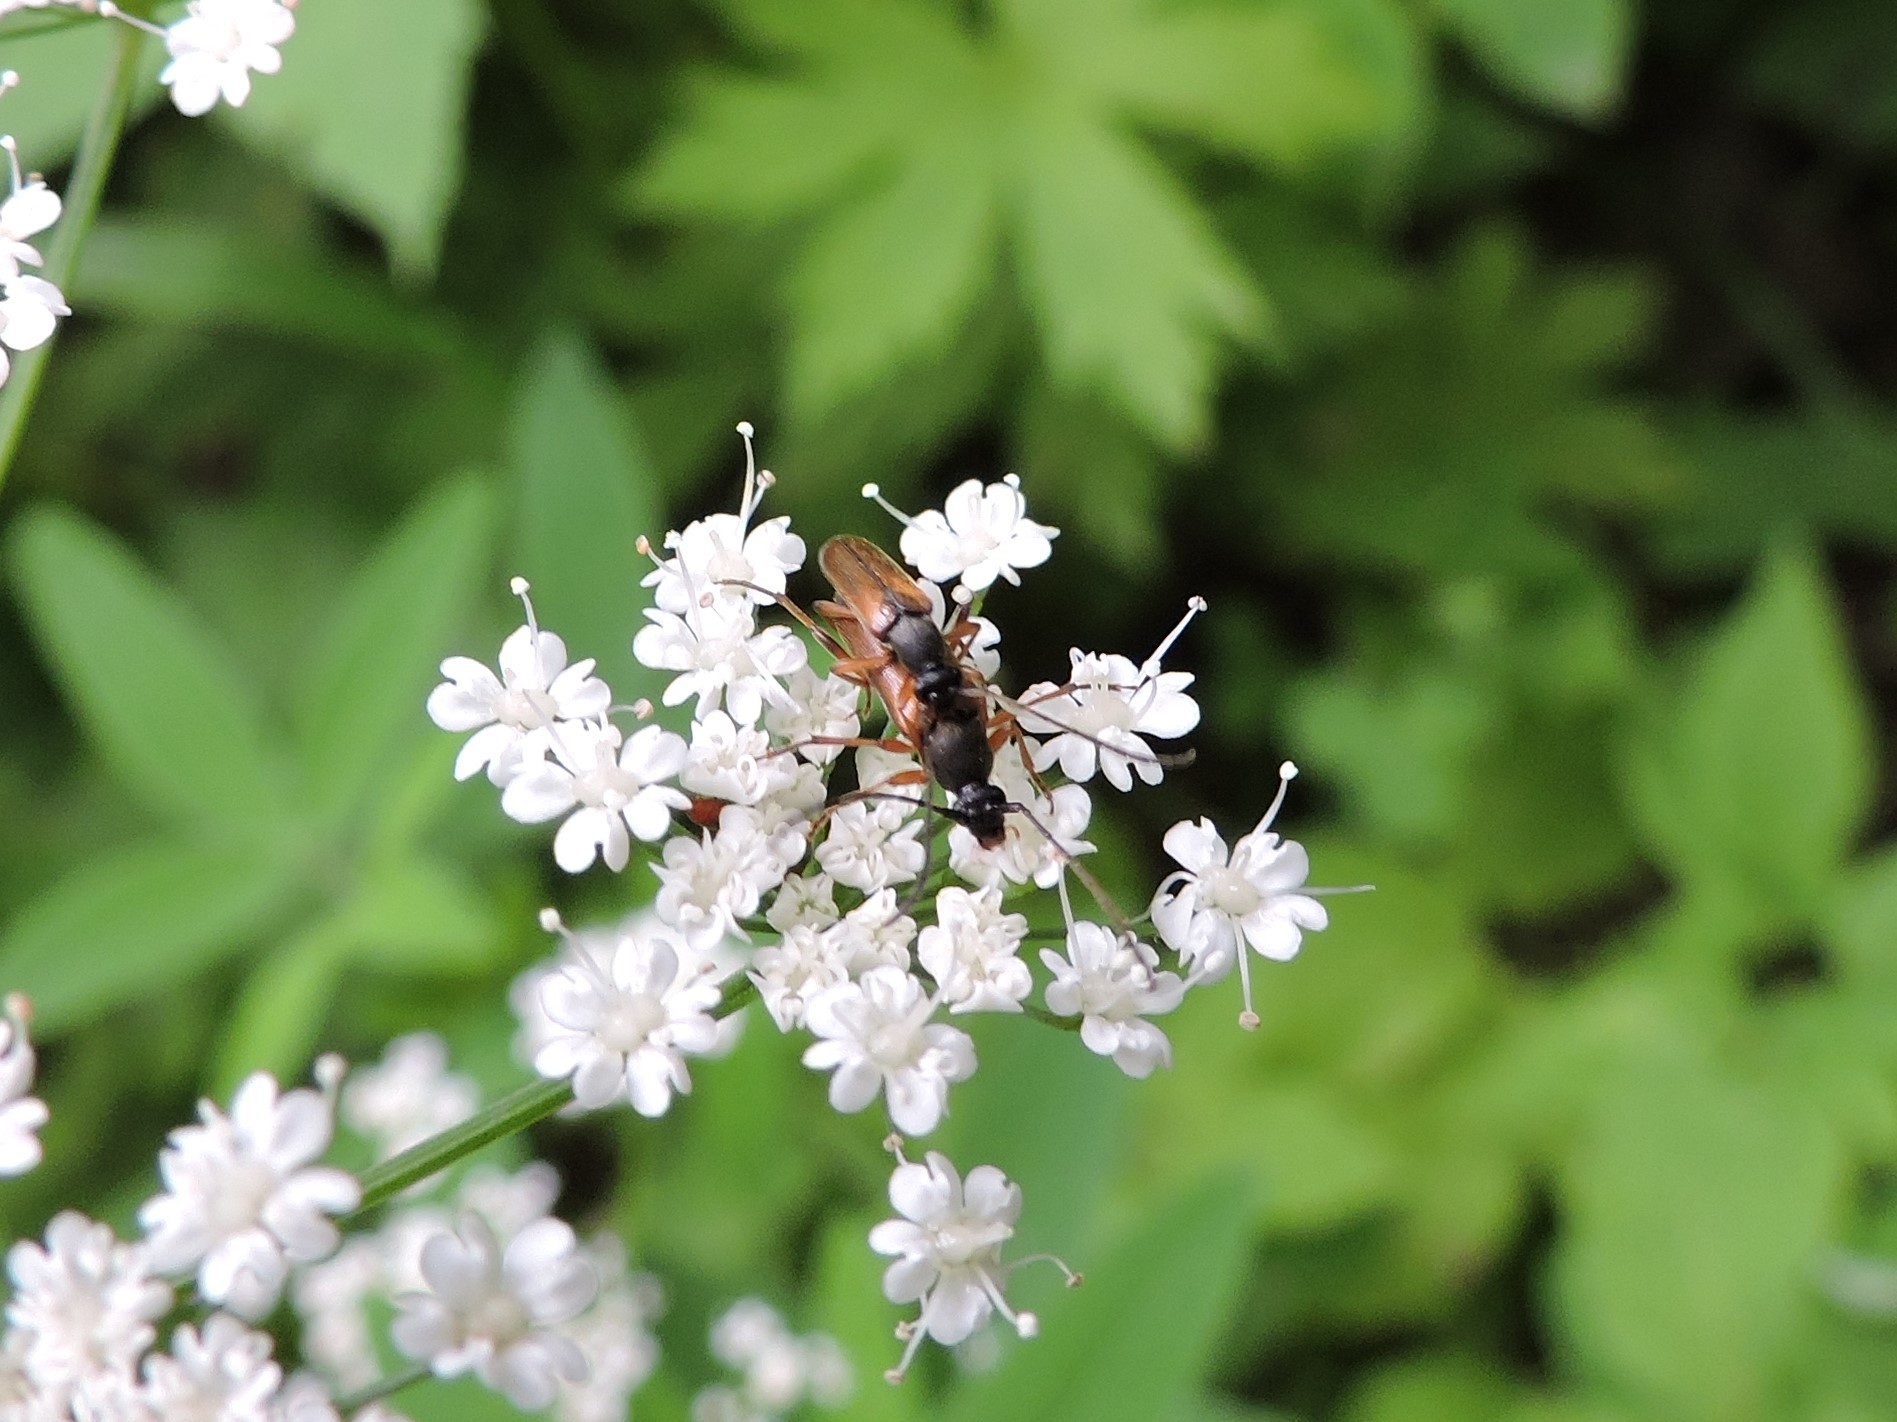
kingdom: Animalia
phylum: Arthropoda
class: Insecta
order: Coleoptera
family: Cerambycidae
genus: Alosterna
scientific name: Alosterna tabacicolor
